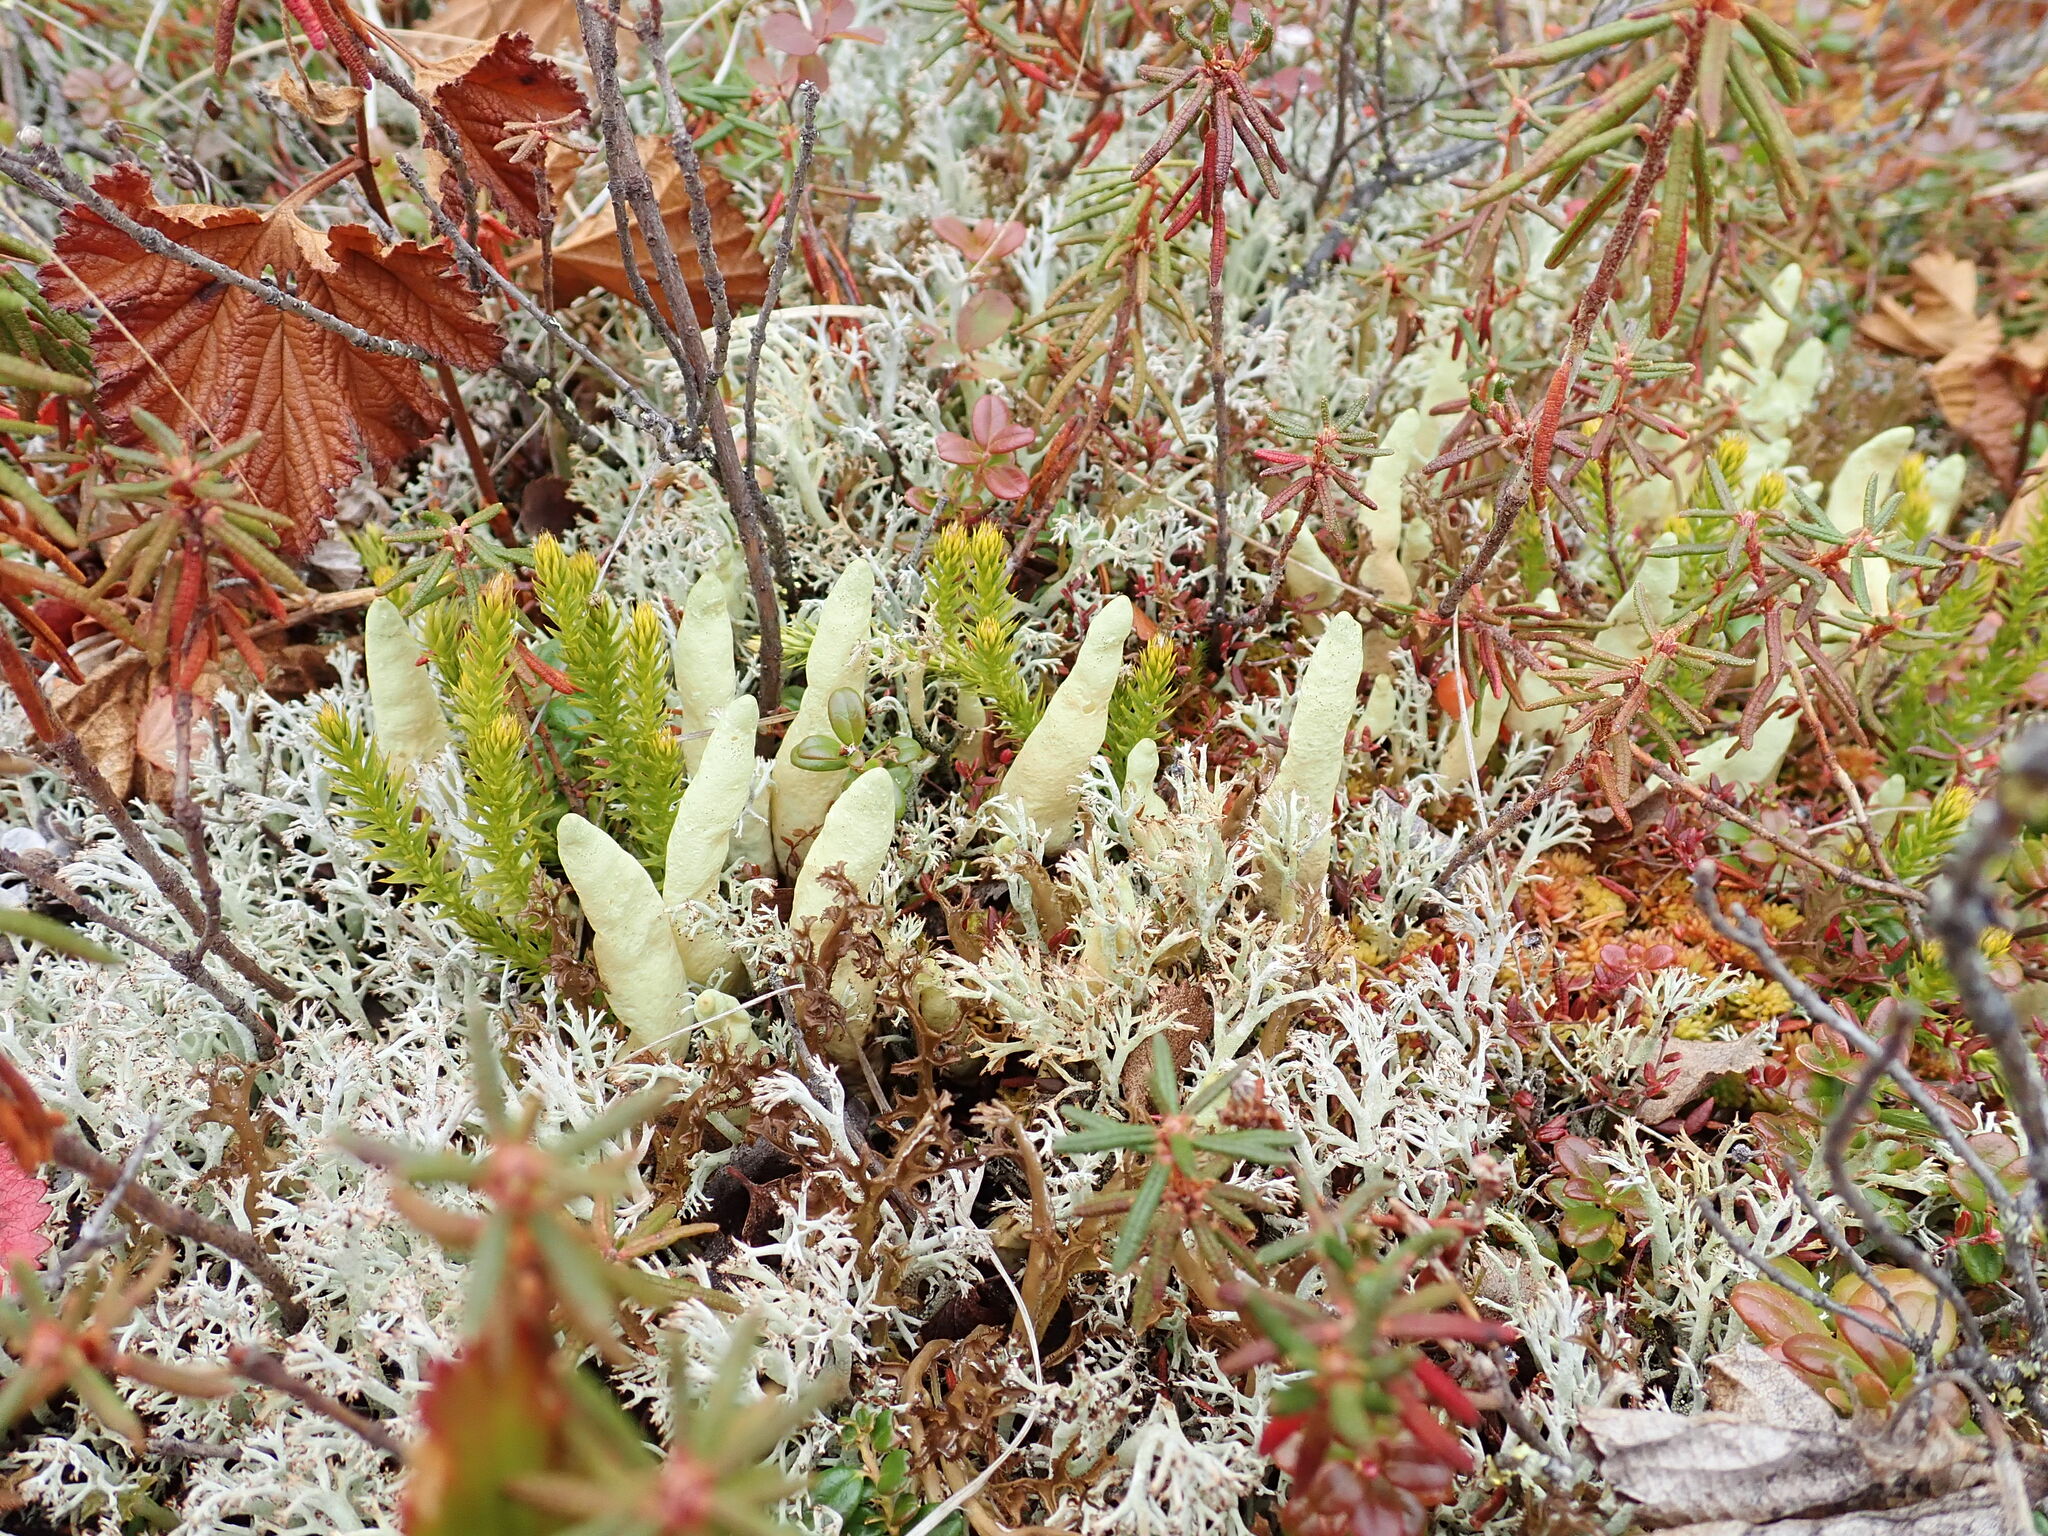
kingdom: Fungi
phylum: Ascomycota
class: Lecanoromycetes
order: Lecanorales
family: Parmeliaceae
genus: Dactylina
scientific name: Dactylina arctica
